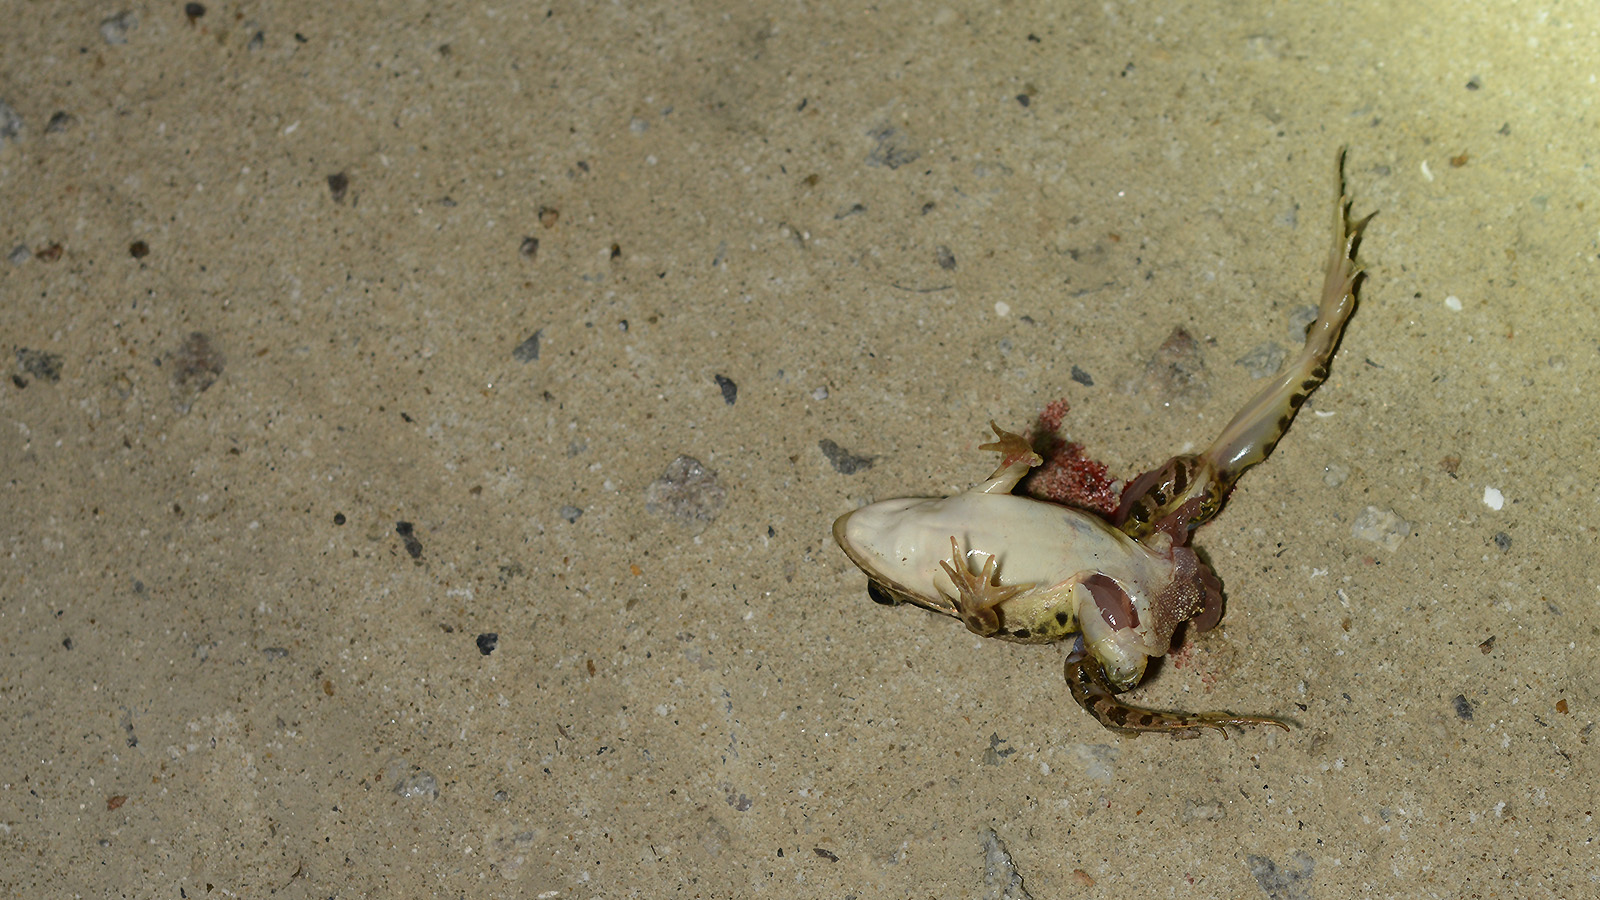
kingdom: Animalia
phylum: Chordata
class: Amphibia
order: Anura
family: Ranidae
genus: Pelophylax
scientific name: Pelophylax nigromaculatus
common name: Black-spotted pond frog
